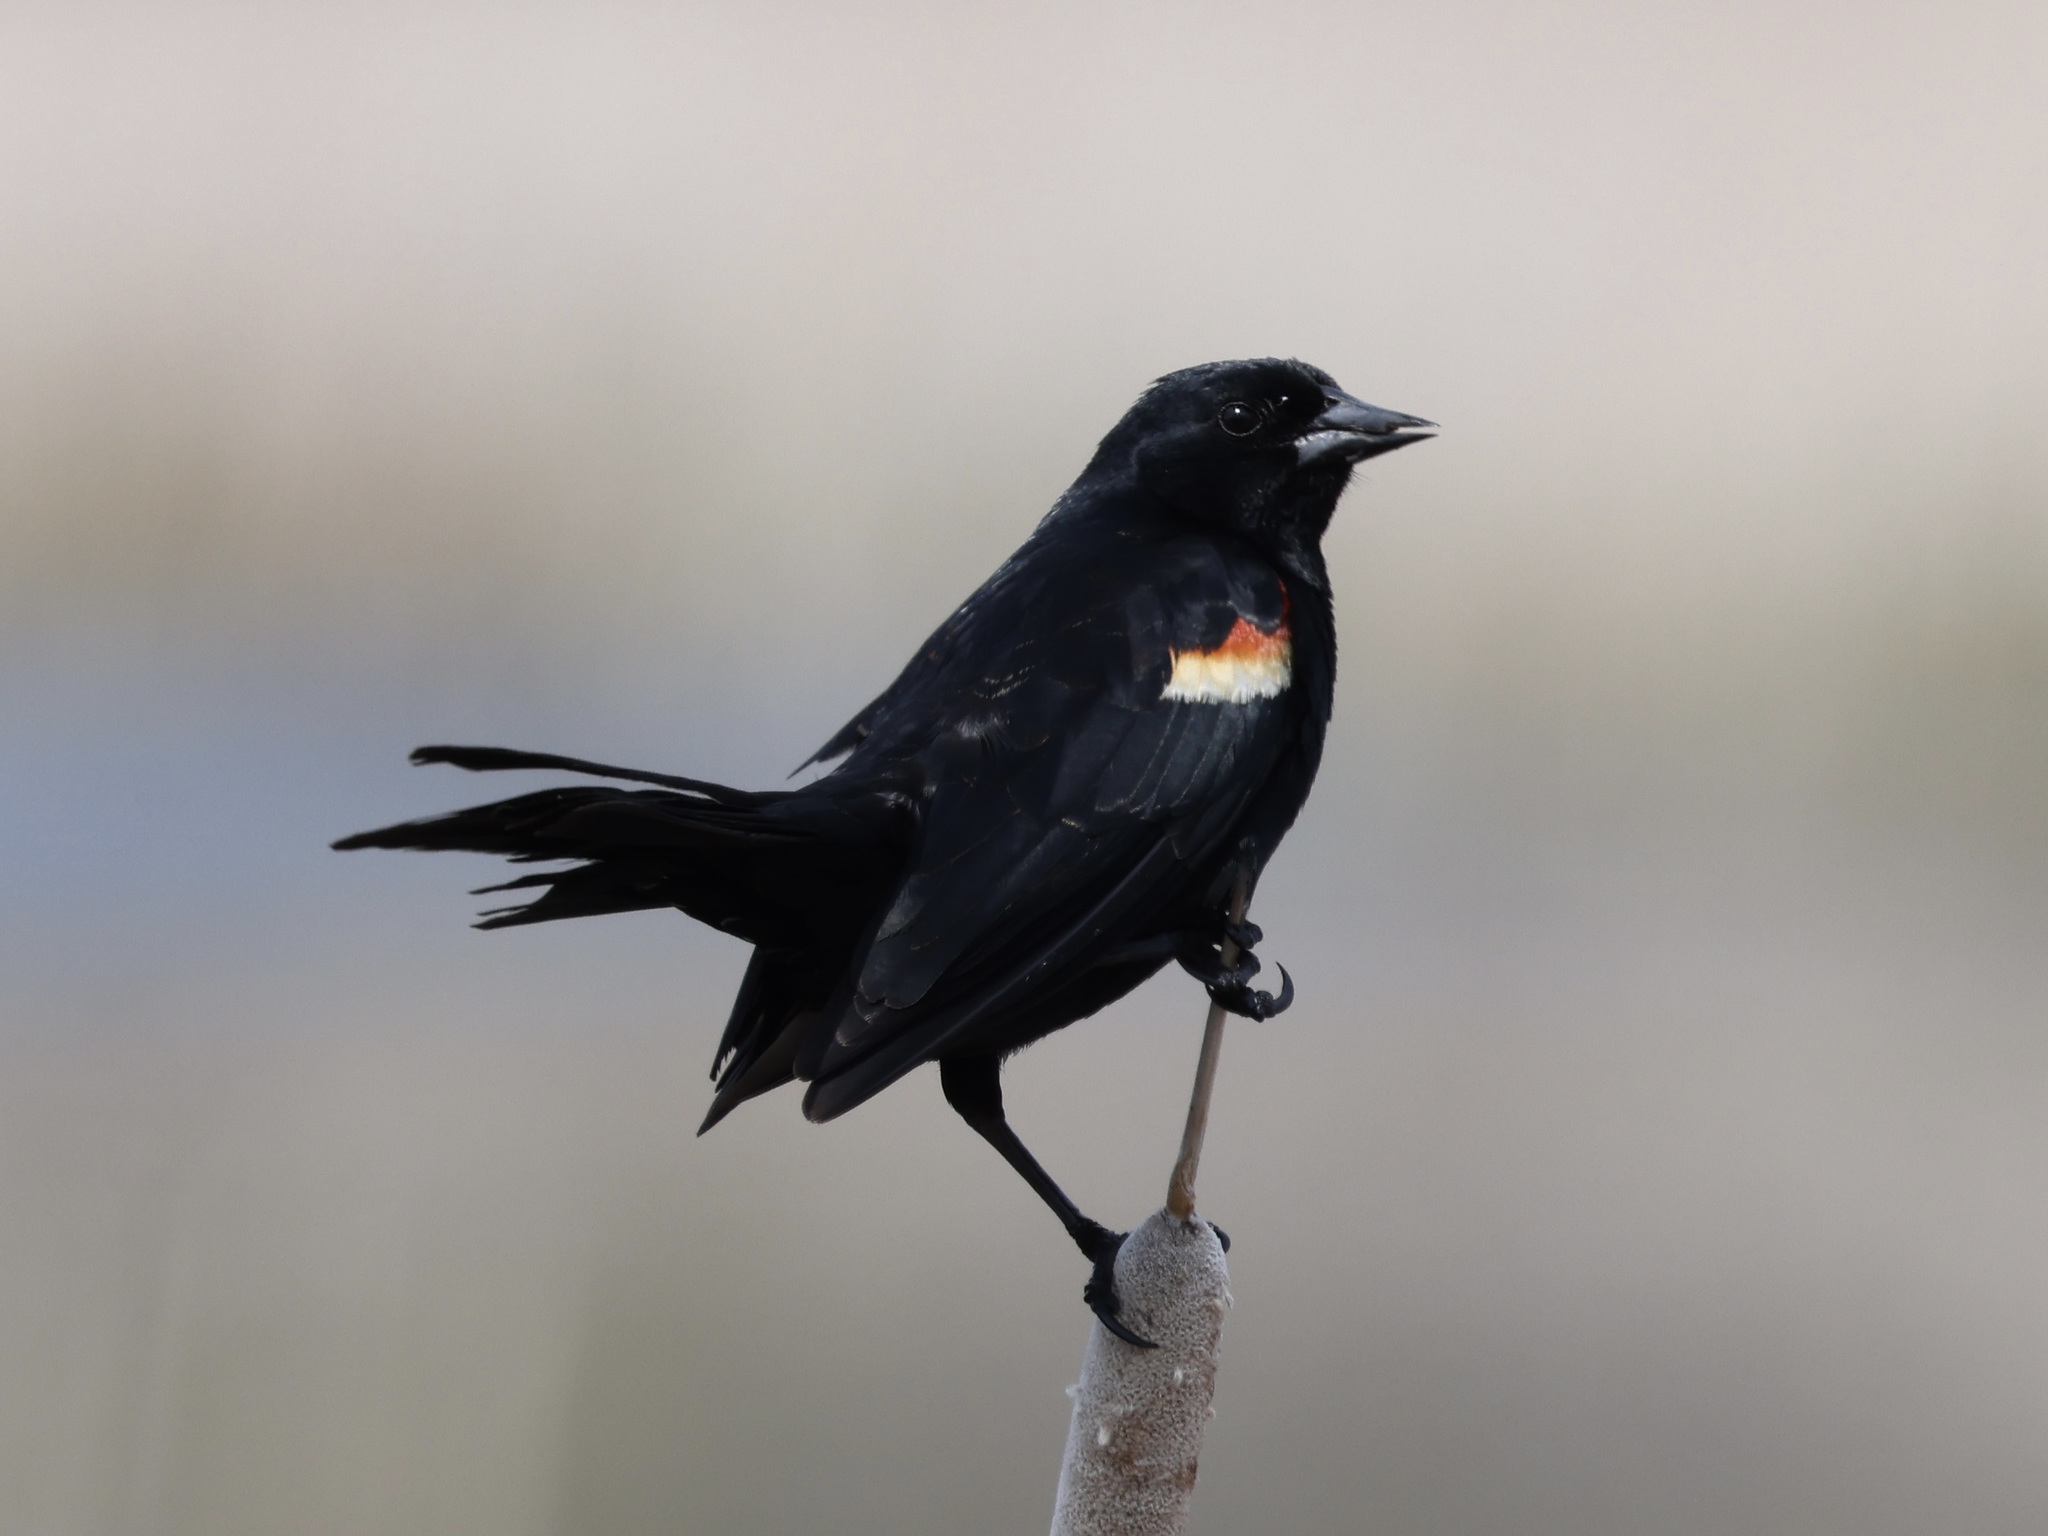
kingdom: Animalia
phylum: Chordata
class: Aves
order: Passeriformes
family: Icteridae
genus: Agelaius
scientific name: Agelaius phoeniceus
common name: Red-winged blackbird
